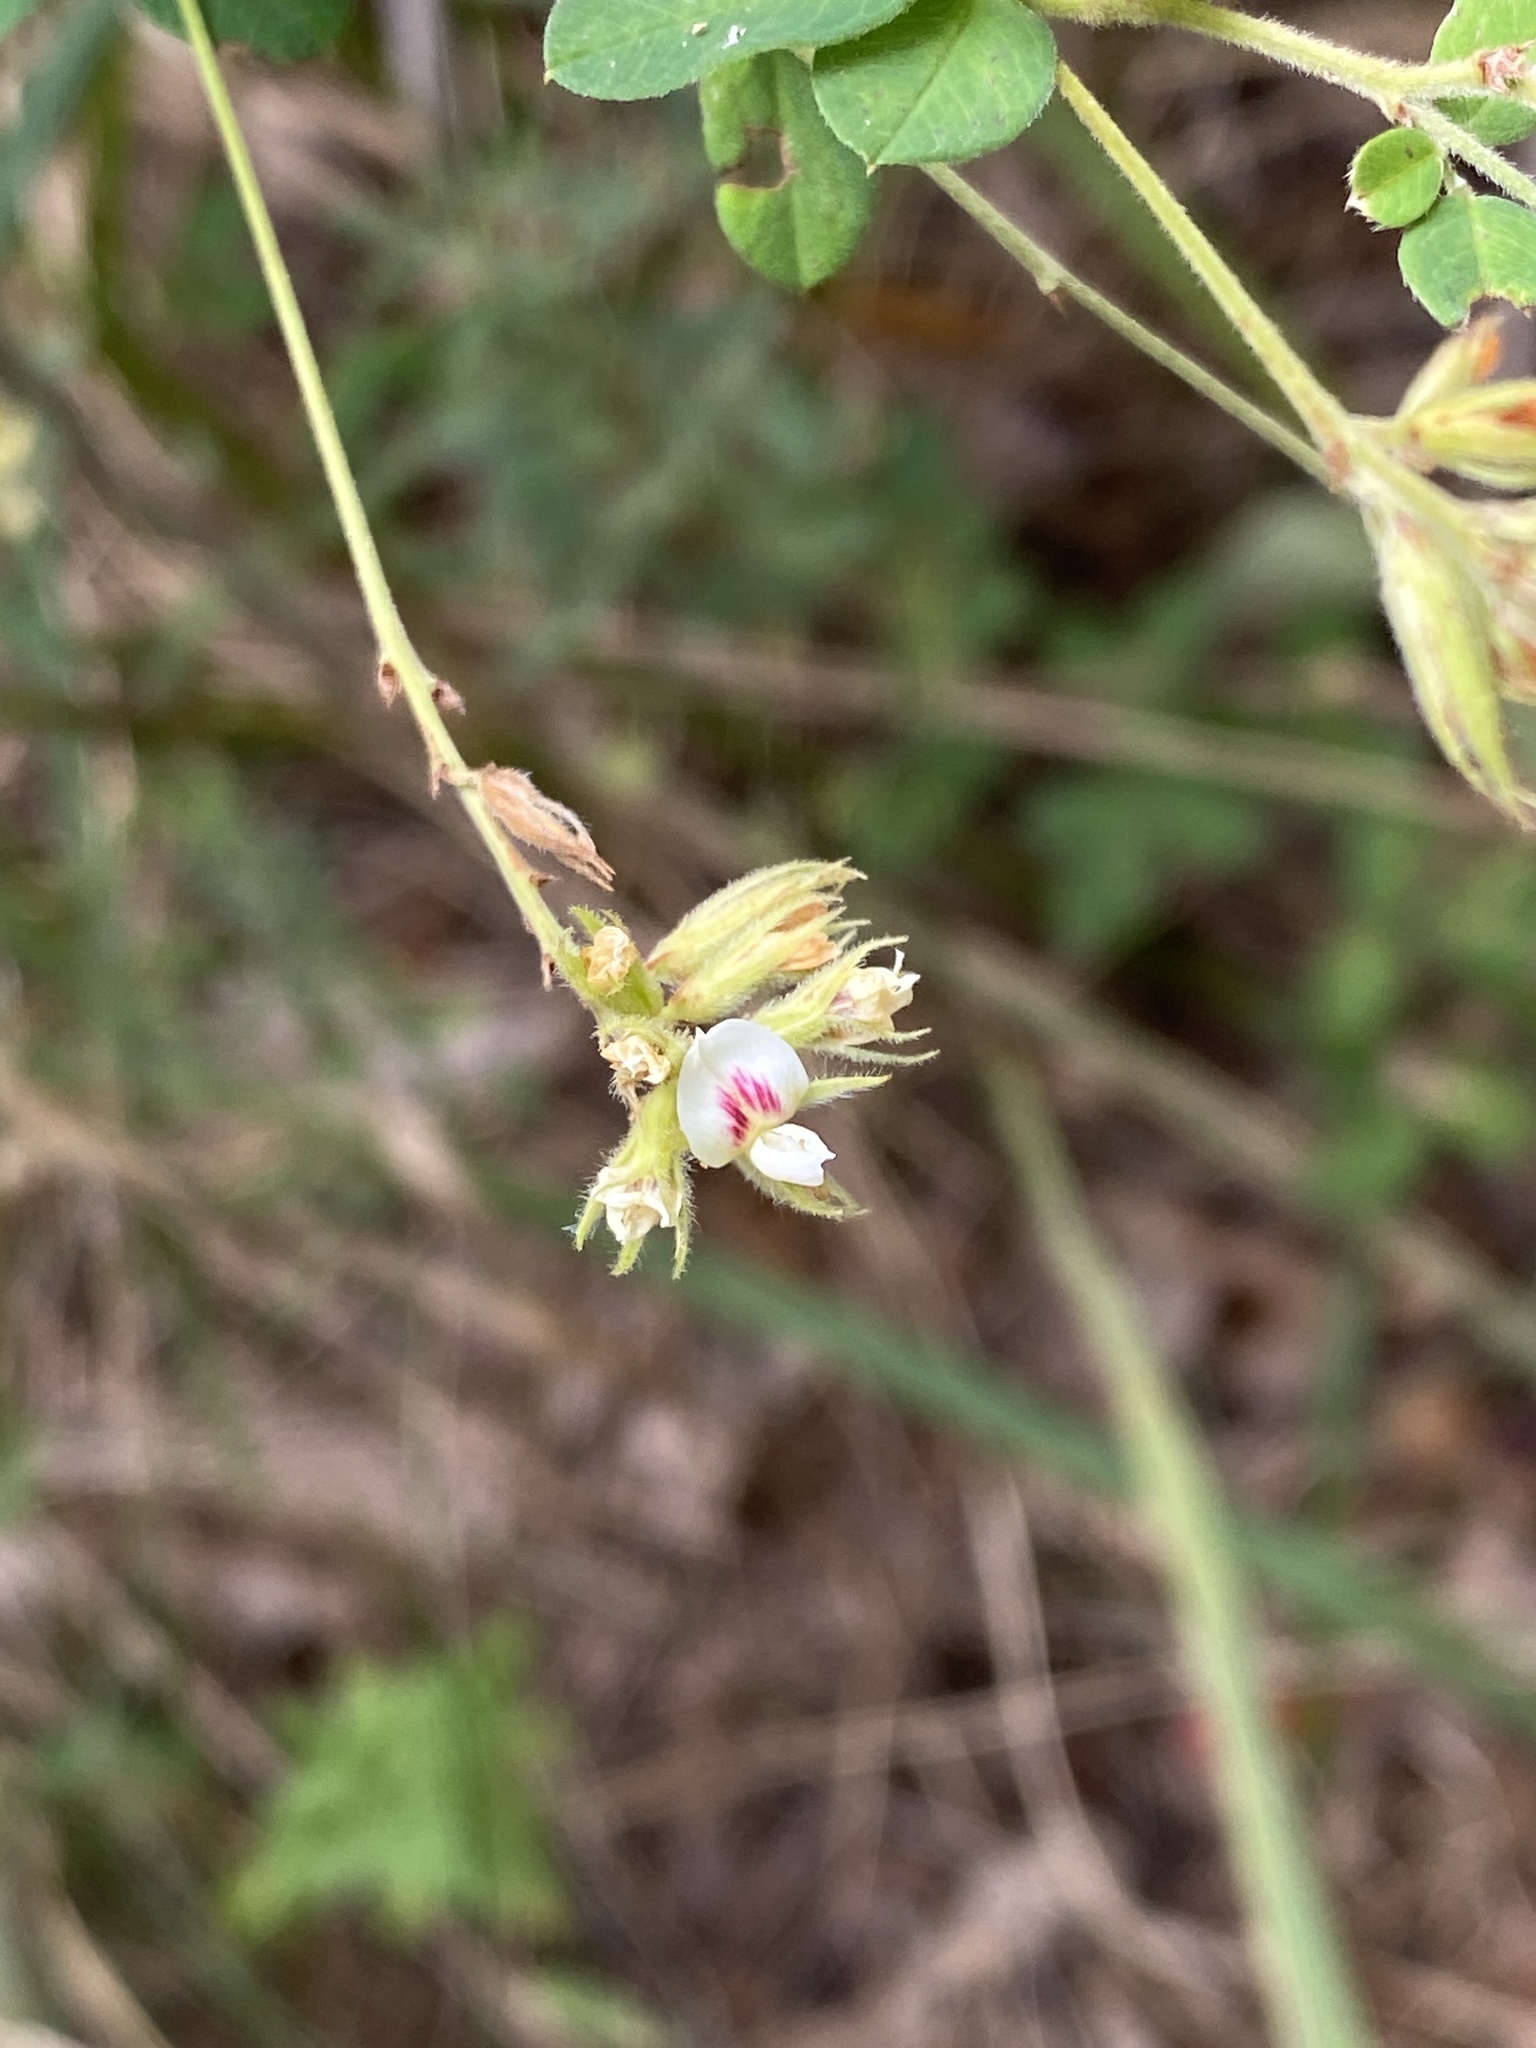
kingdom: Plantae
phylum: Tracheophyta
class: Magnoliopsida
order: Fabales
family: Fabaceae
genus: Lespedeza
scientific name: Lespedeza hirta
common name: Hairy lespedeza
